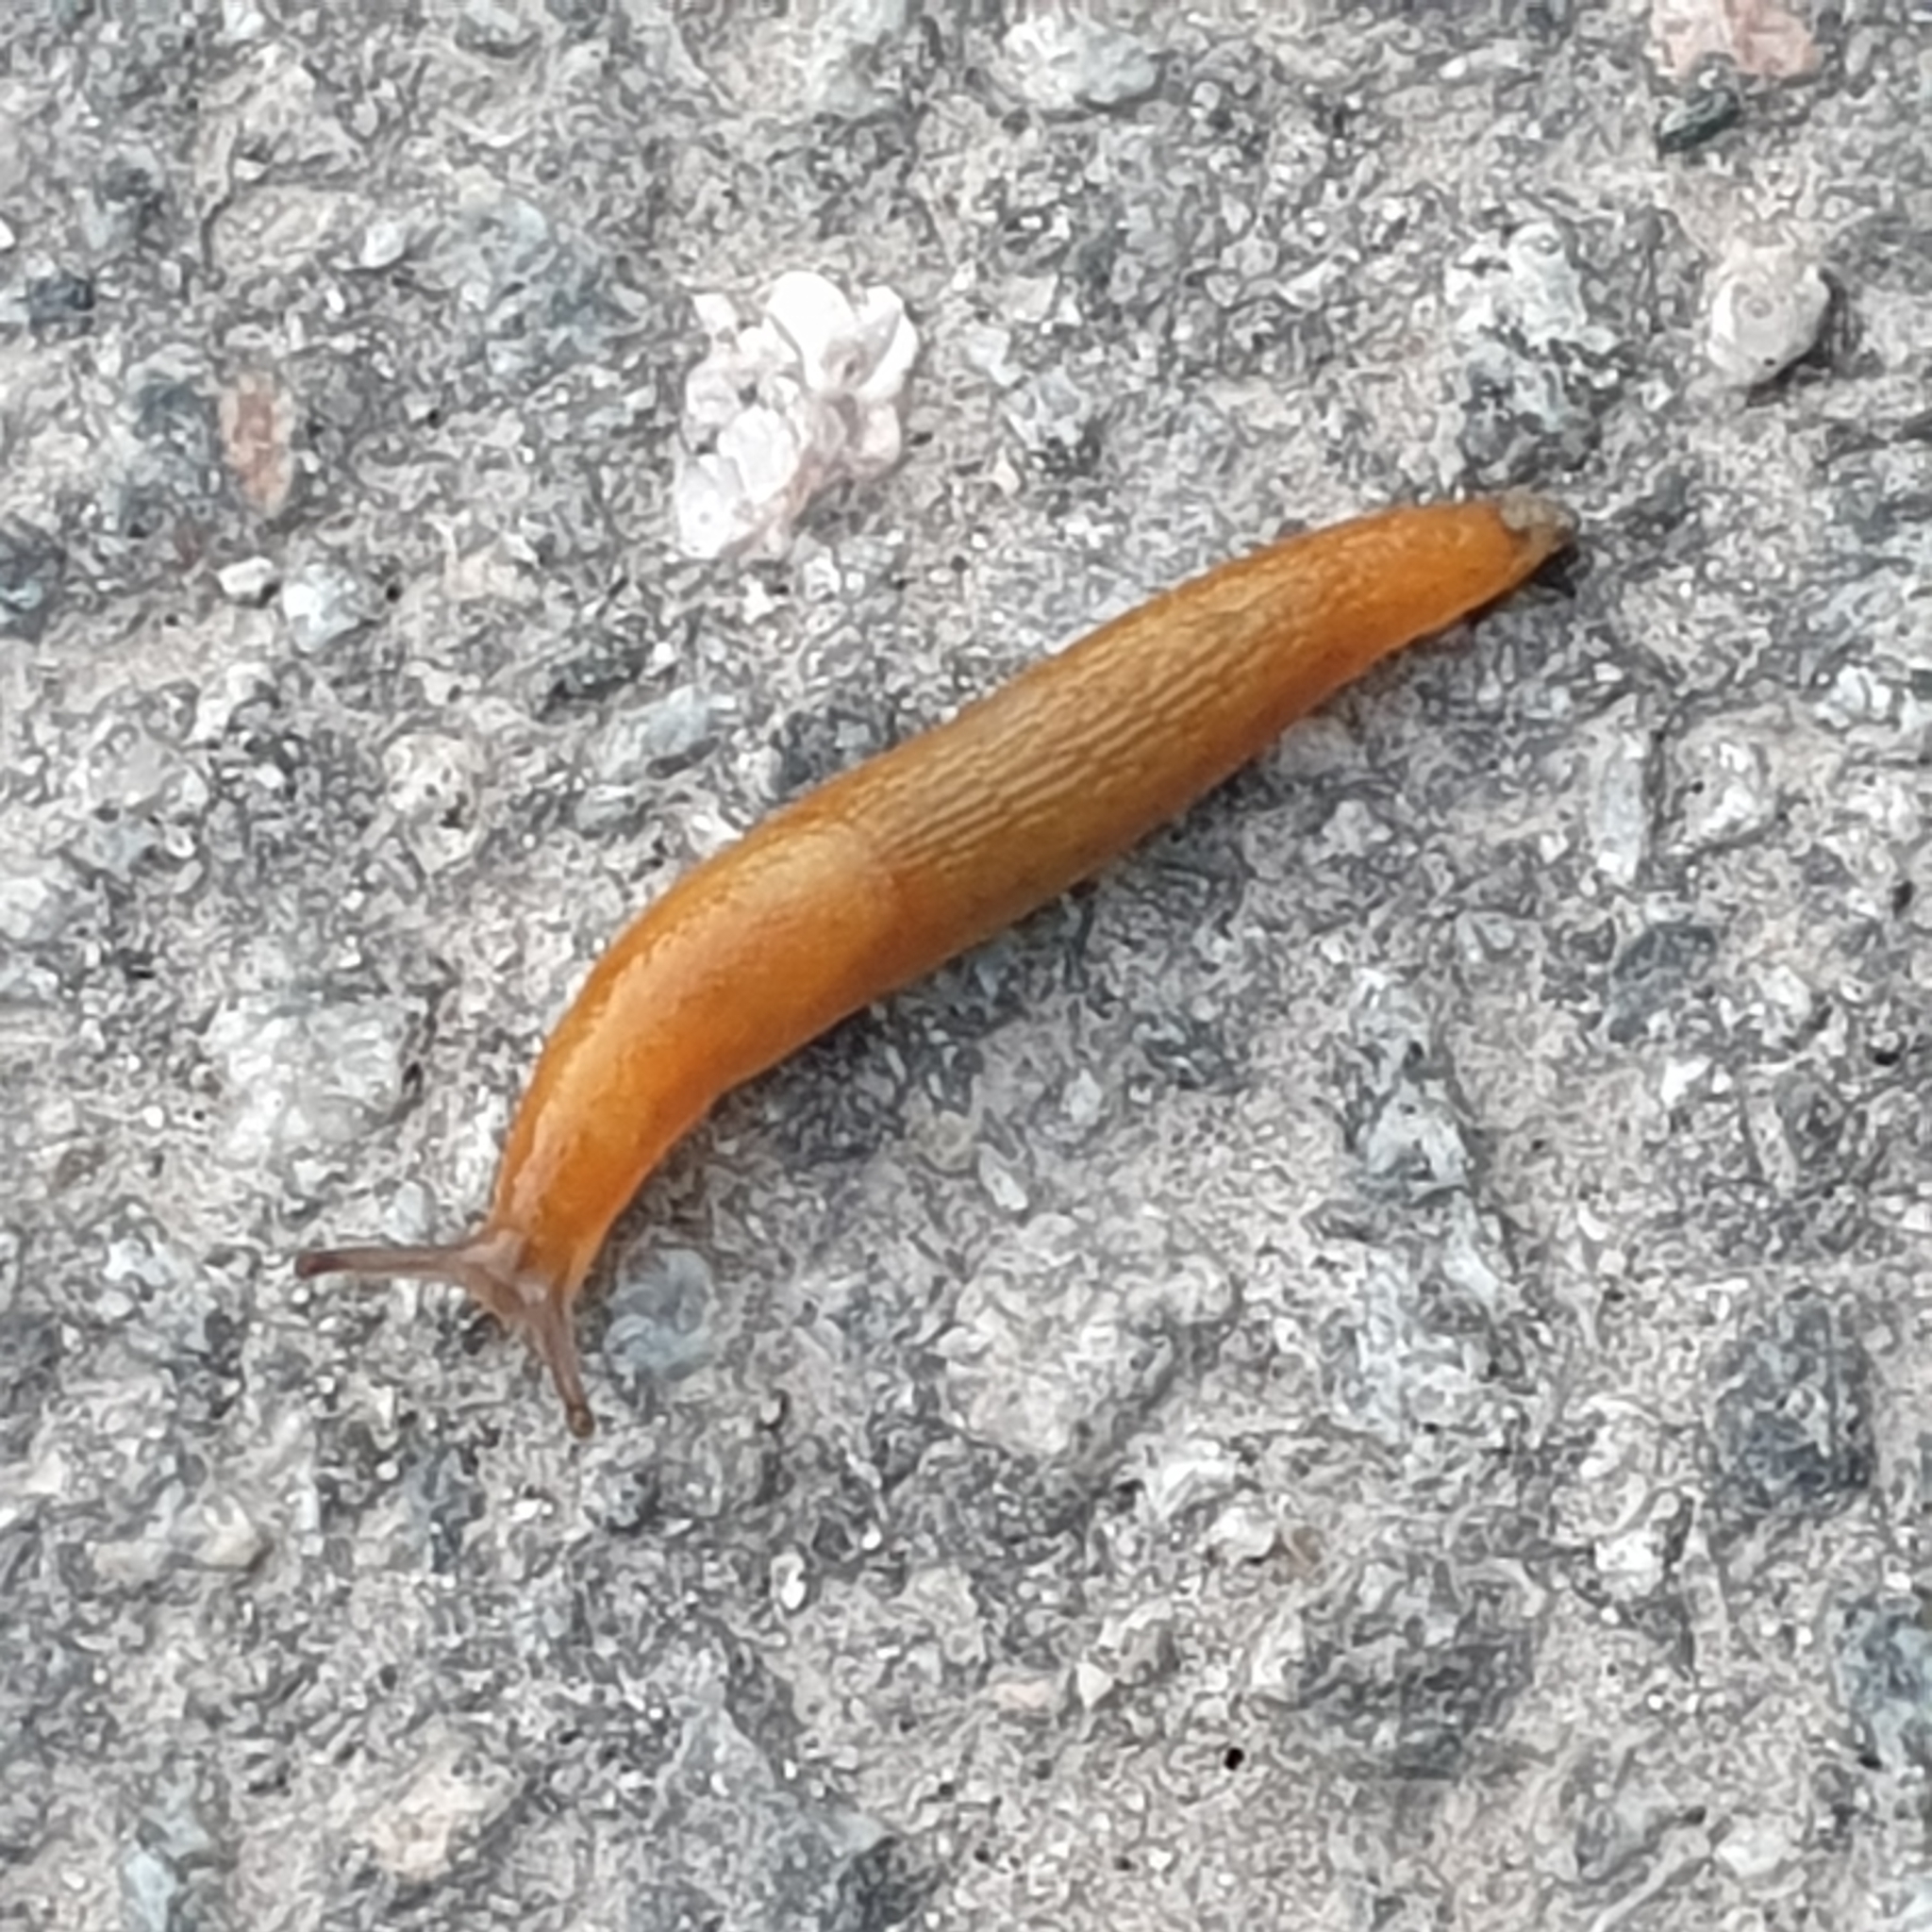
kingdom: Animalia
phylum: Mollusca
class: Gastropoda
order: Stylommatophora
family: Arionidae
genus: Arion
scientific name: Arion fuscus
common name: Northern dusky slug
